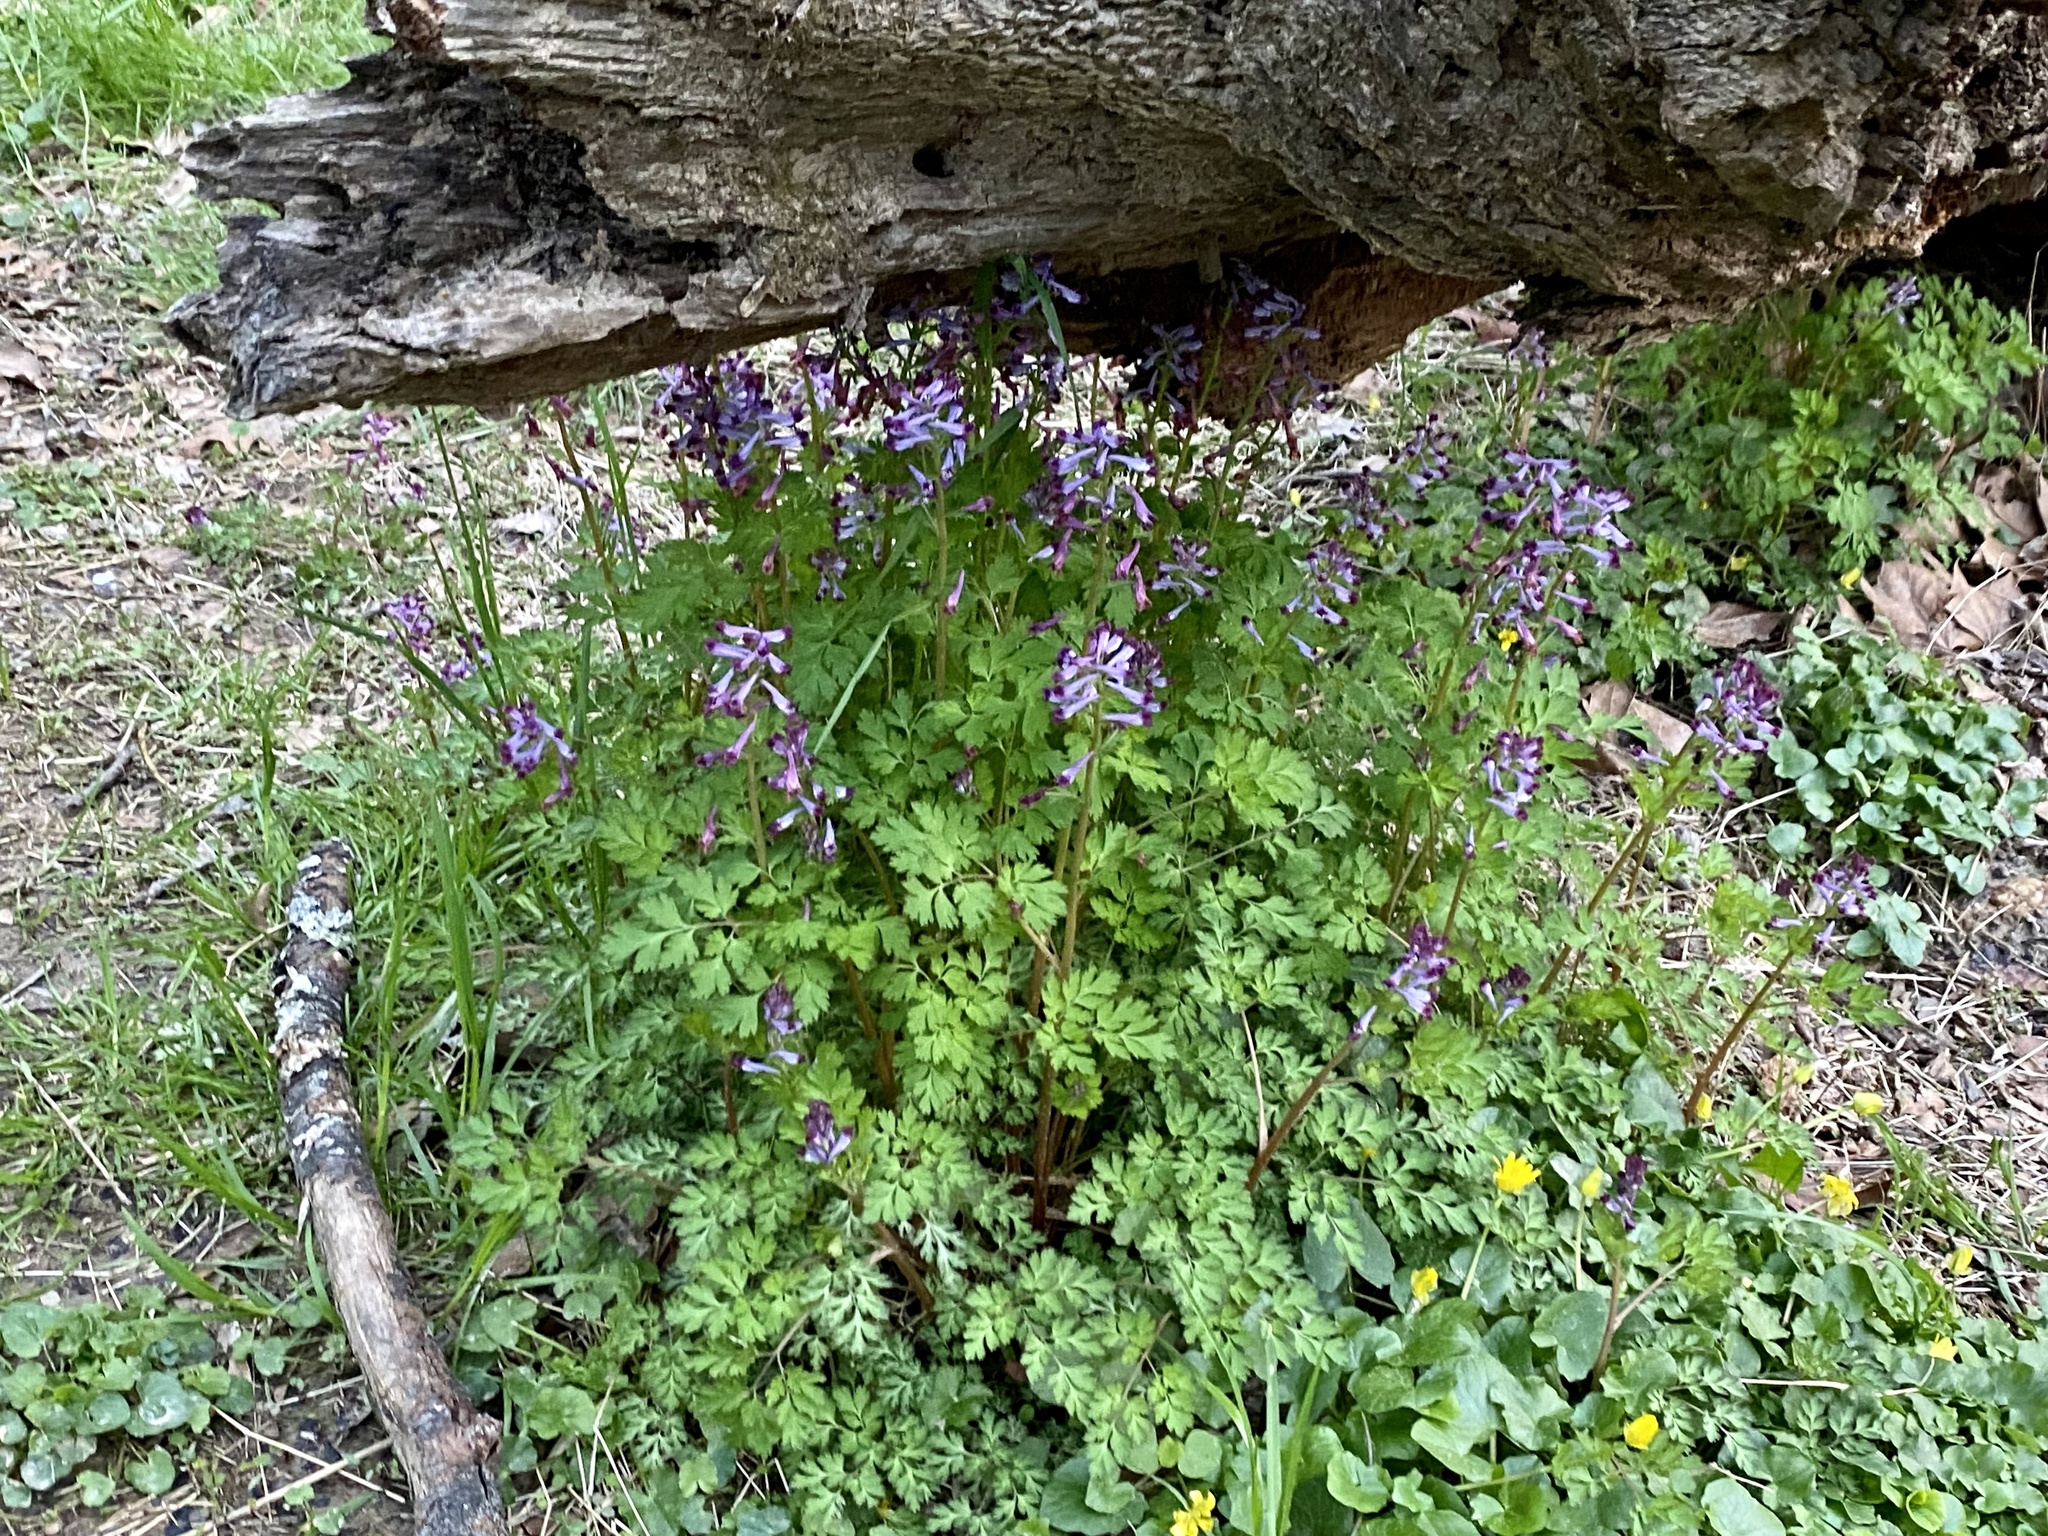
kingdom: Plantae
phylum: Tracheophyta
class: Magnoliopsida
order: Ranunculales
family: Papaveraceae
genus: Corydalis
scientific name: Corydalis incisa
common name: Incised fumewort
